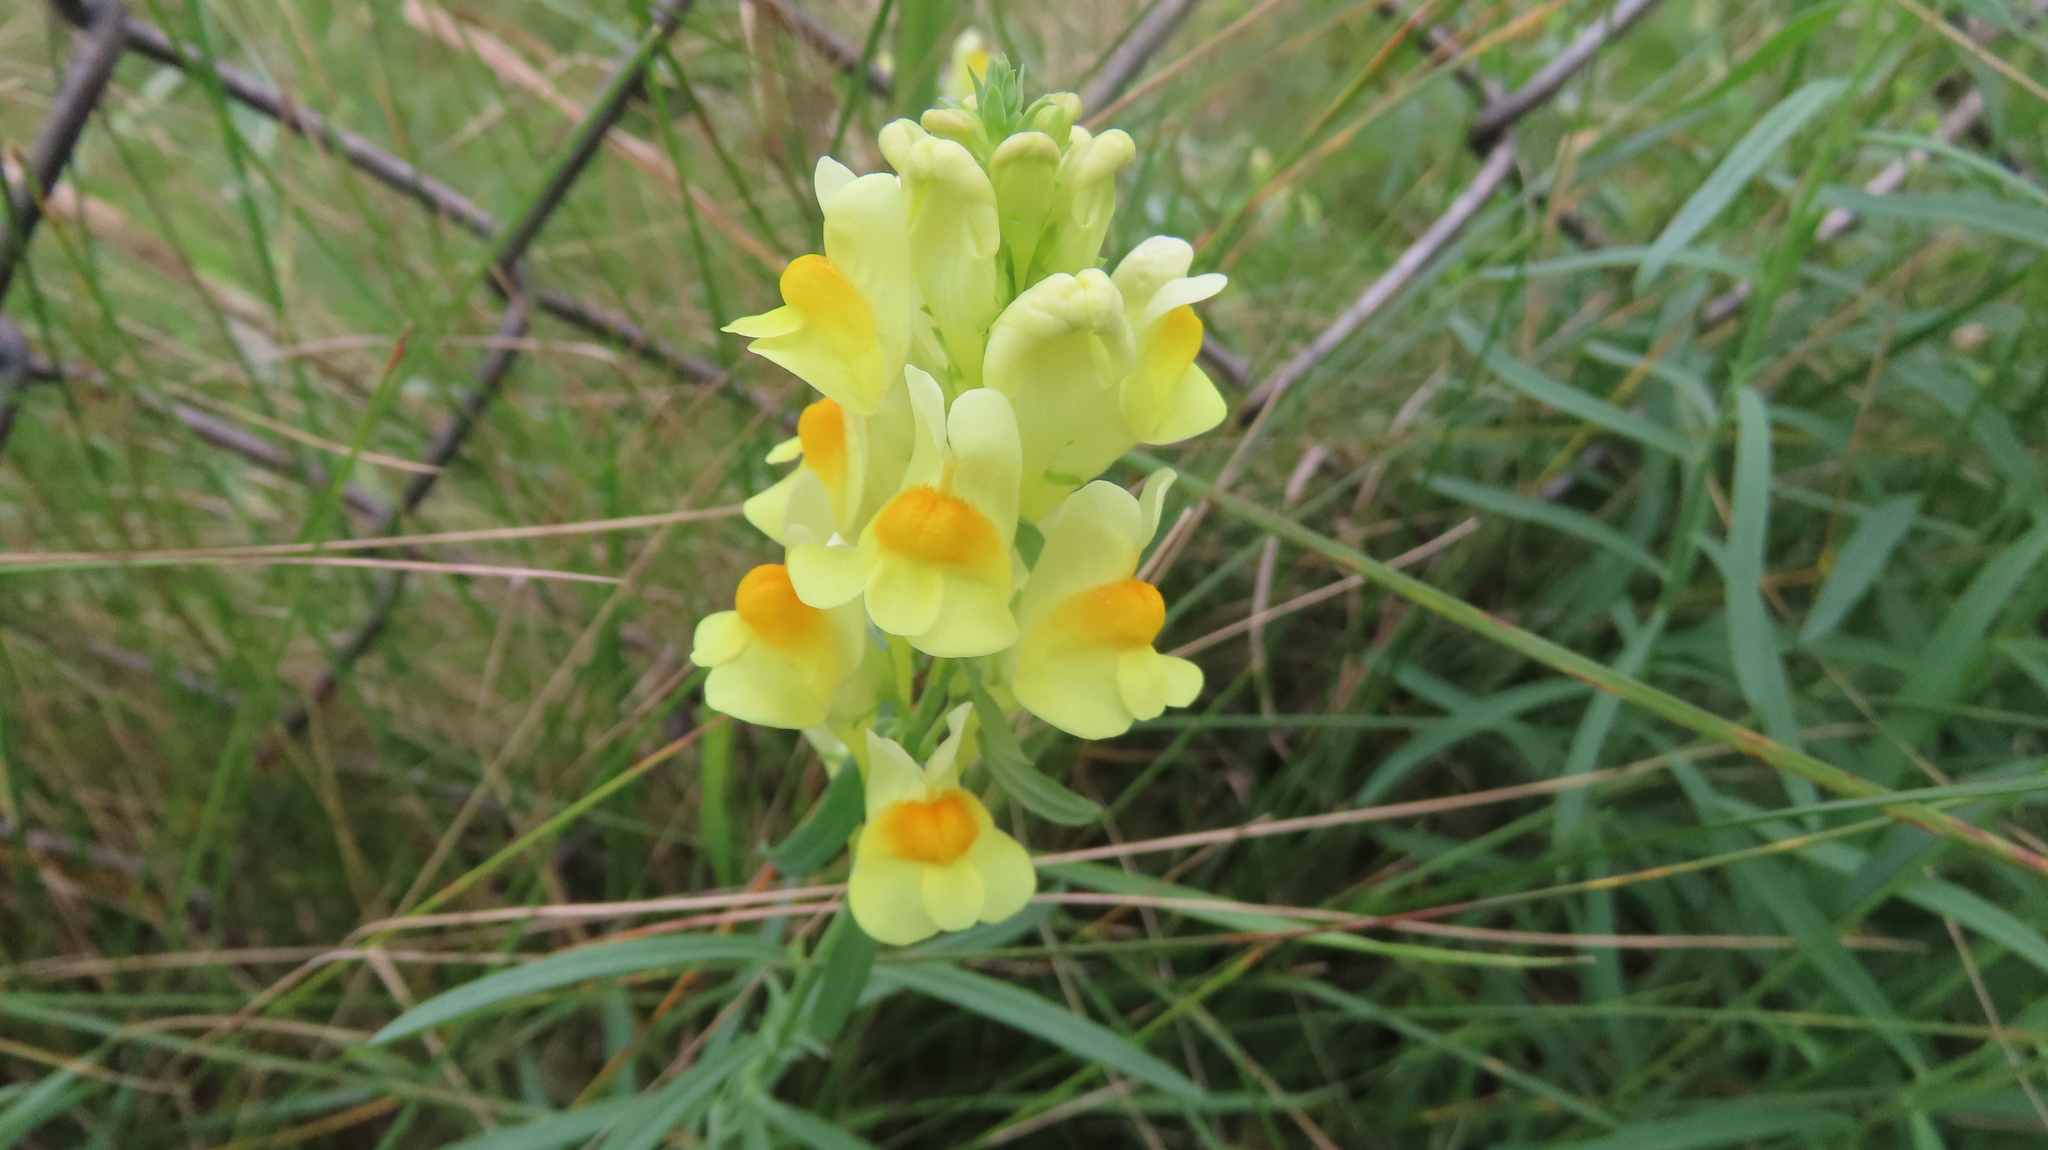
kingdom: Plantae
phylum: Tracheophyta
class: Magnoliopsida
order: Lamiales
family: Plantaginaceae
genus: Linaria
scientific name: Linaria vulgaris
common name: Butter and eggs
